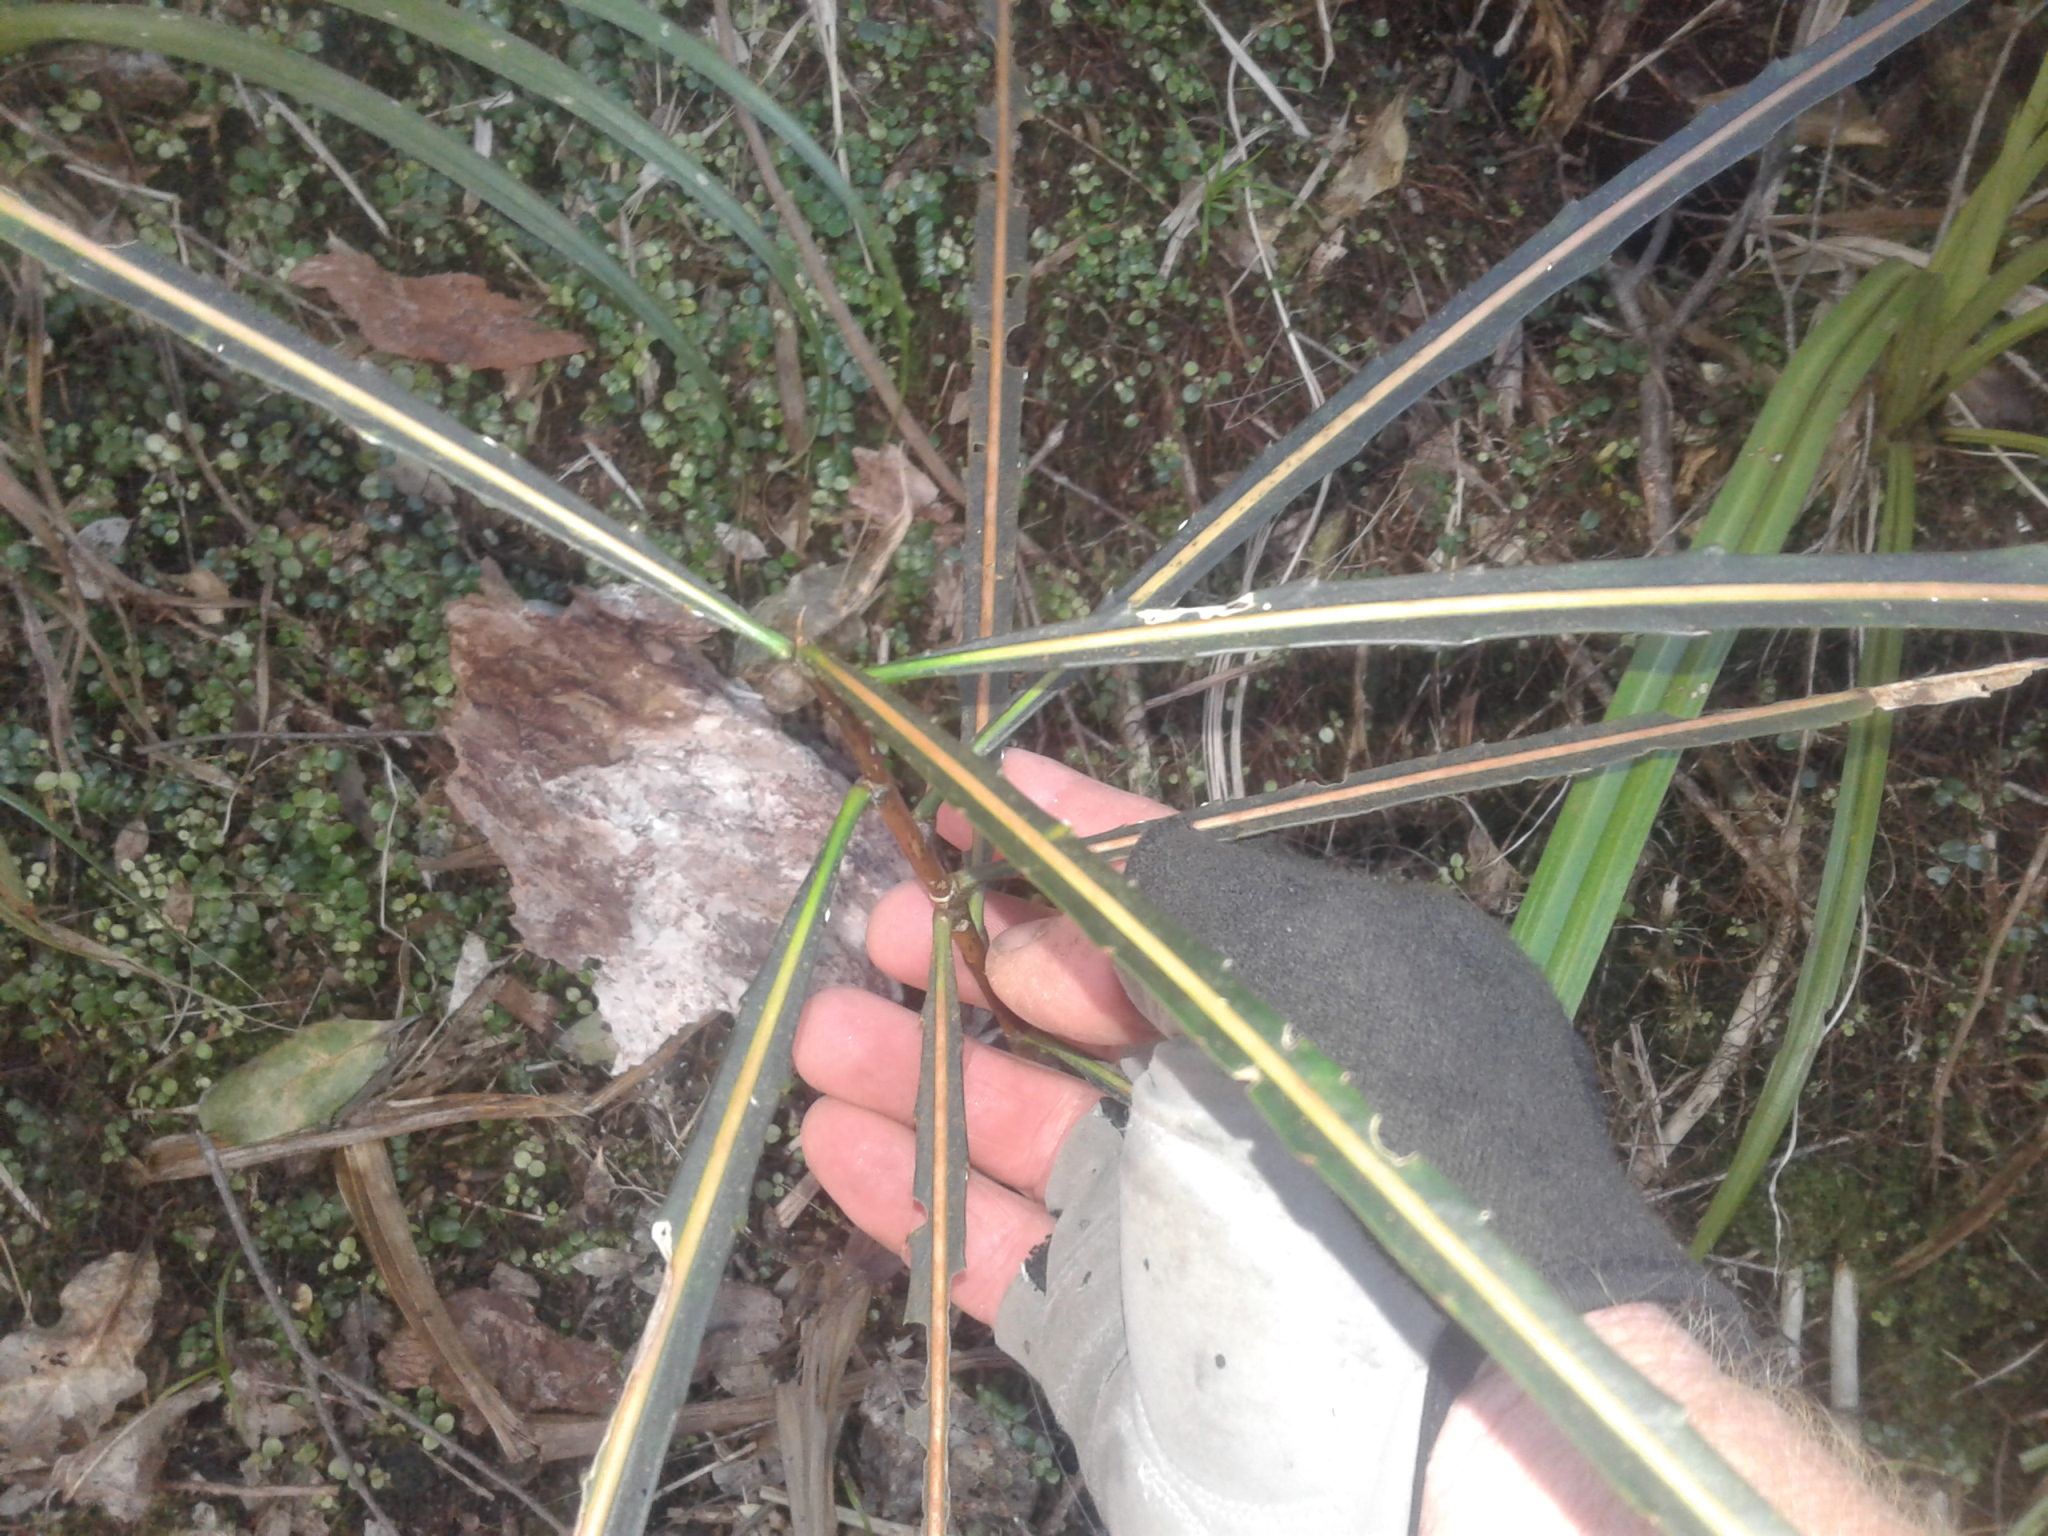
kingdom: Plantae
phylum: Tracheophyta
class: Magnoliopsida
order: Apiales
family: Araliaceae
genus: Pseudopanax
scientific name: Pseudopanax crassifolius
